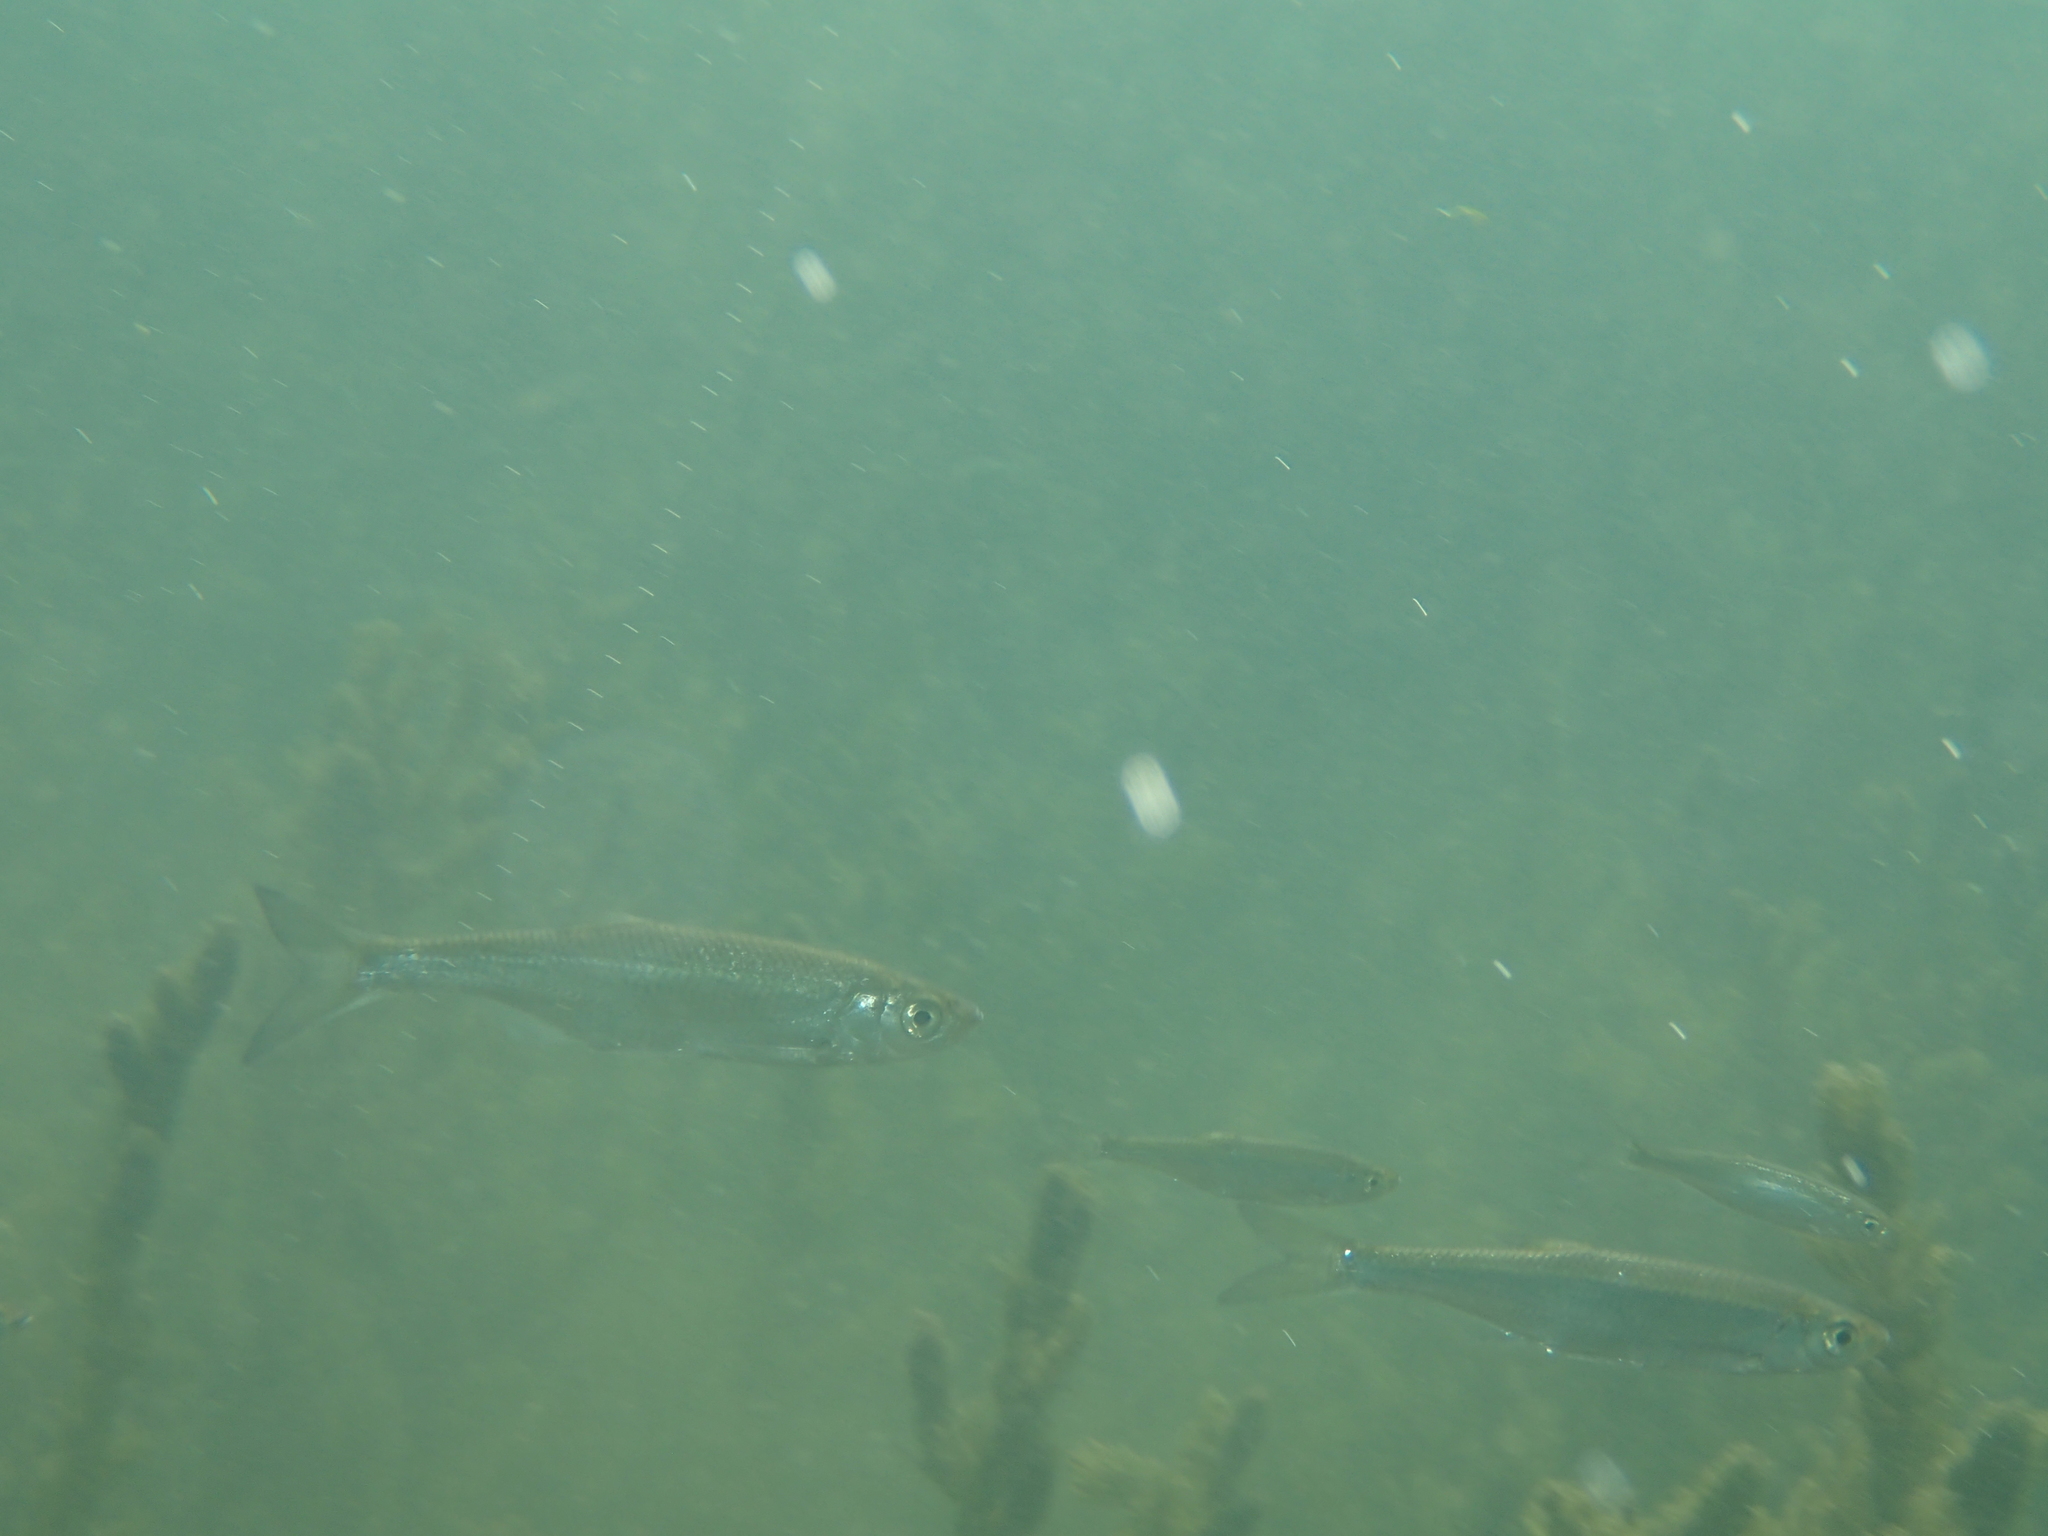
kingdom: Animalia
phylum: Chordata
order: Cypriniformes
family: Cyprinidae
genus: Alburnus
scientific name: Alburnus alburnus
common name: Bleak
